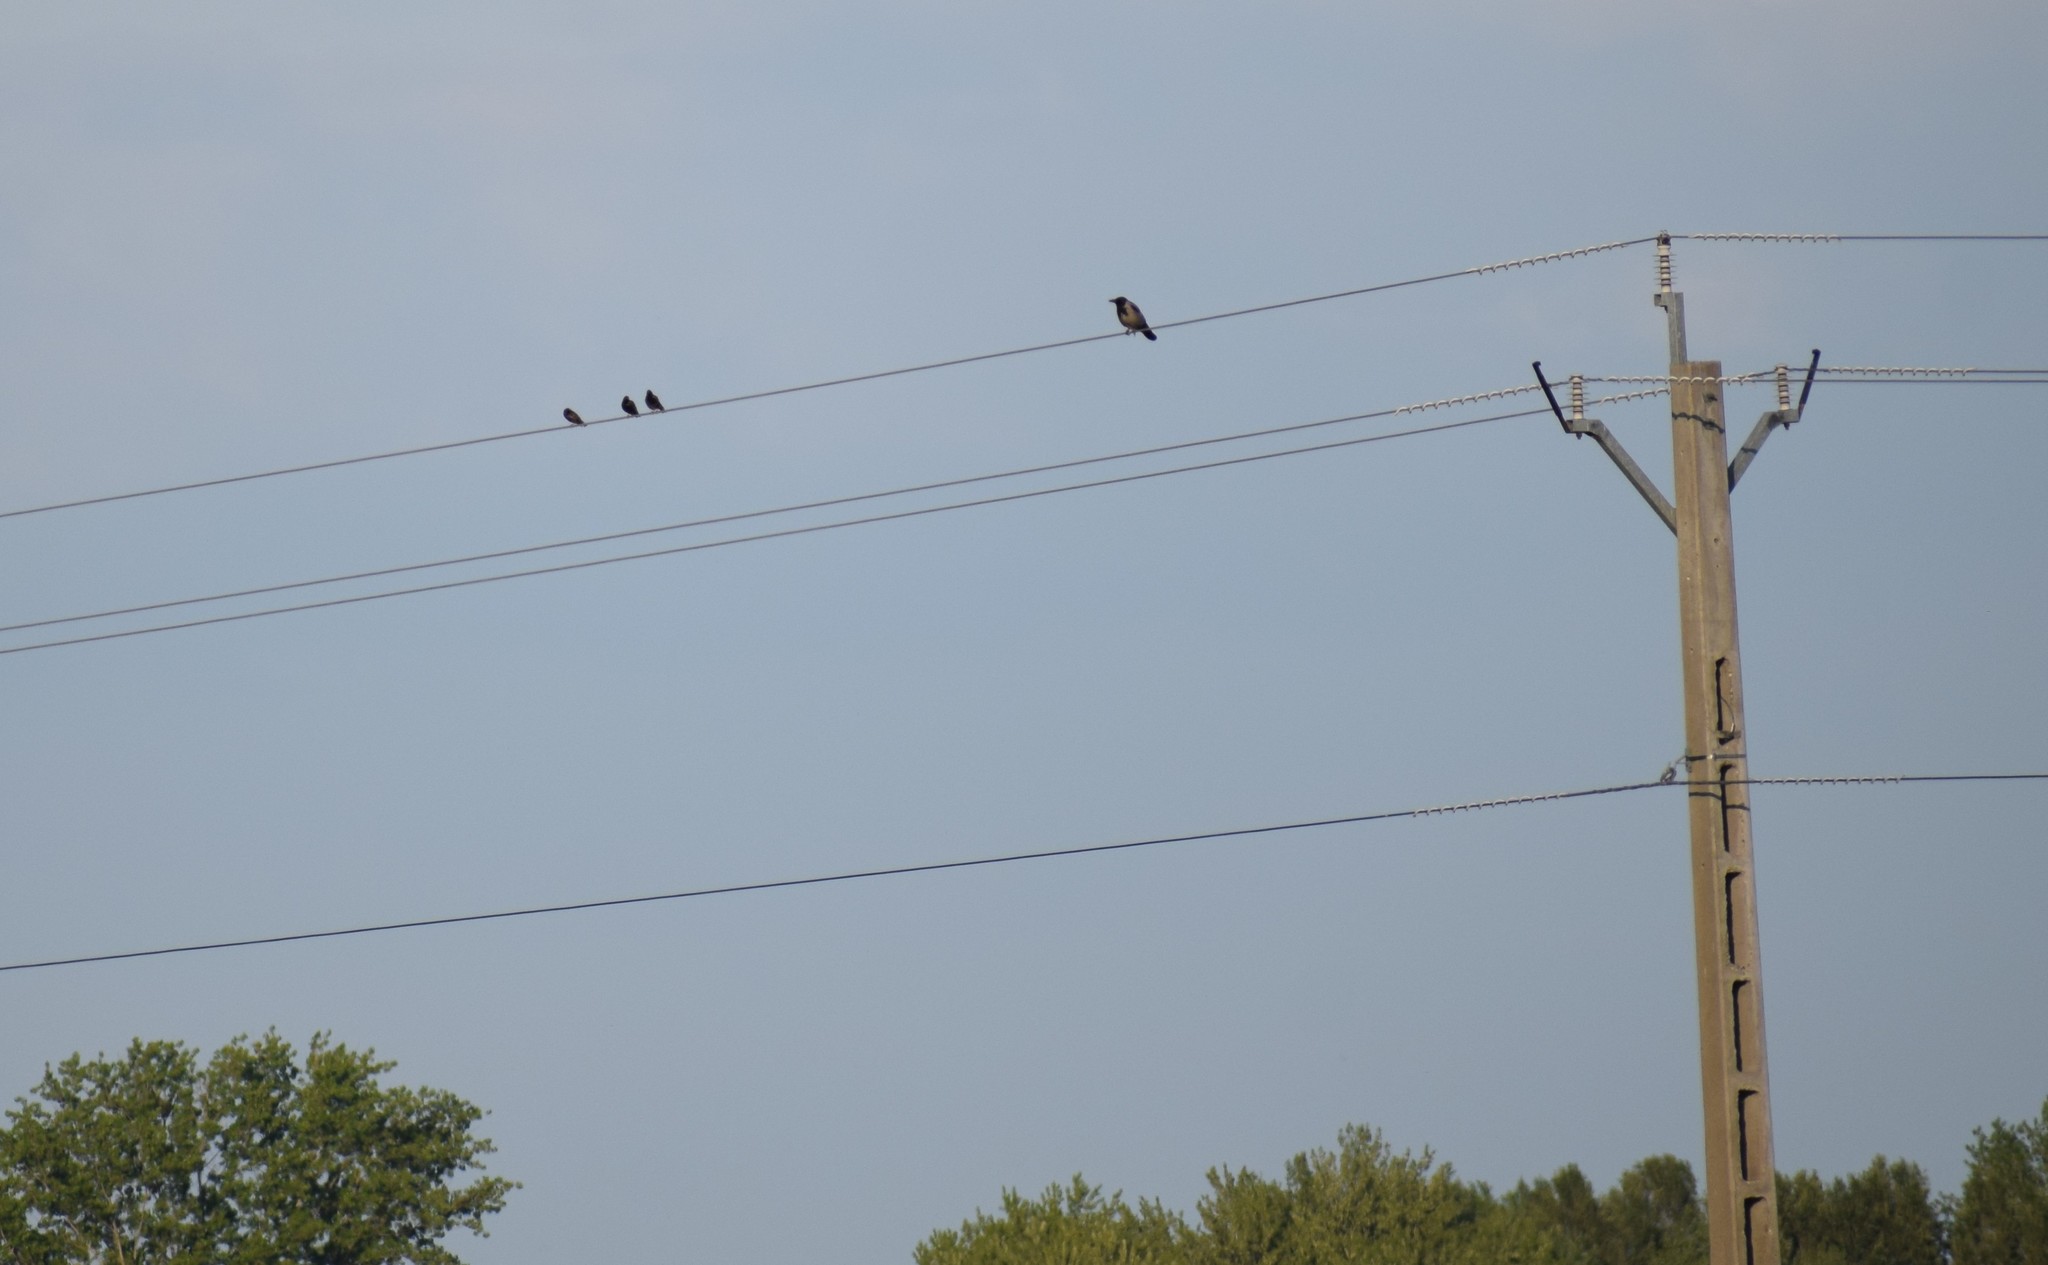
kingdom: Animalia
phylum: Chordata
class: Aves
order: Passeriformes
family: Sturnidae
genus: Sturnus
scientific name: Sturnus vulgaris
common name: Common starling
